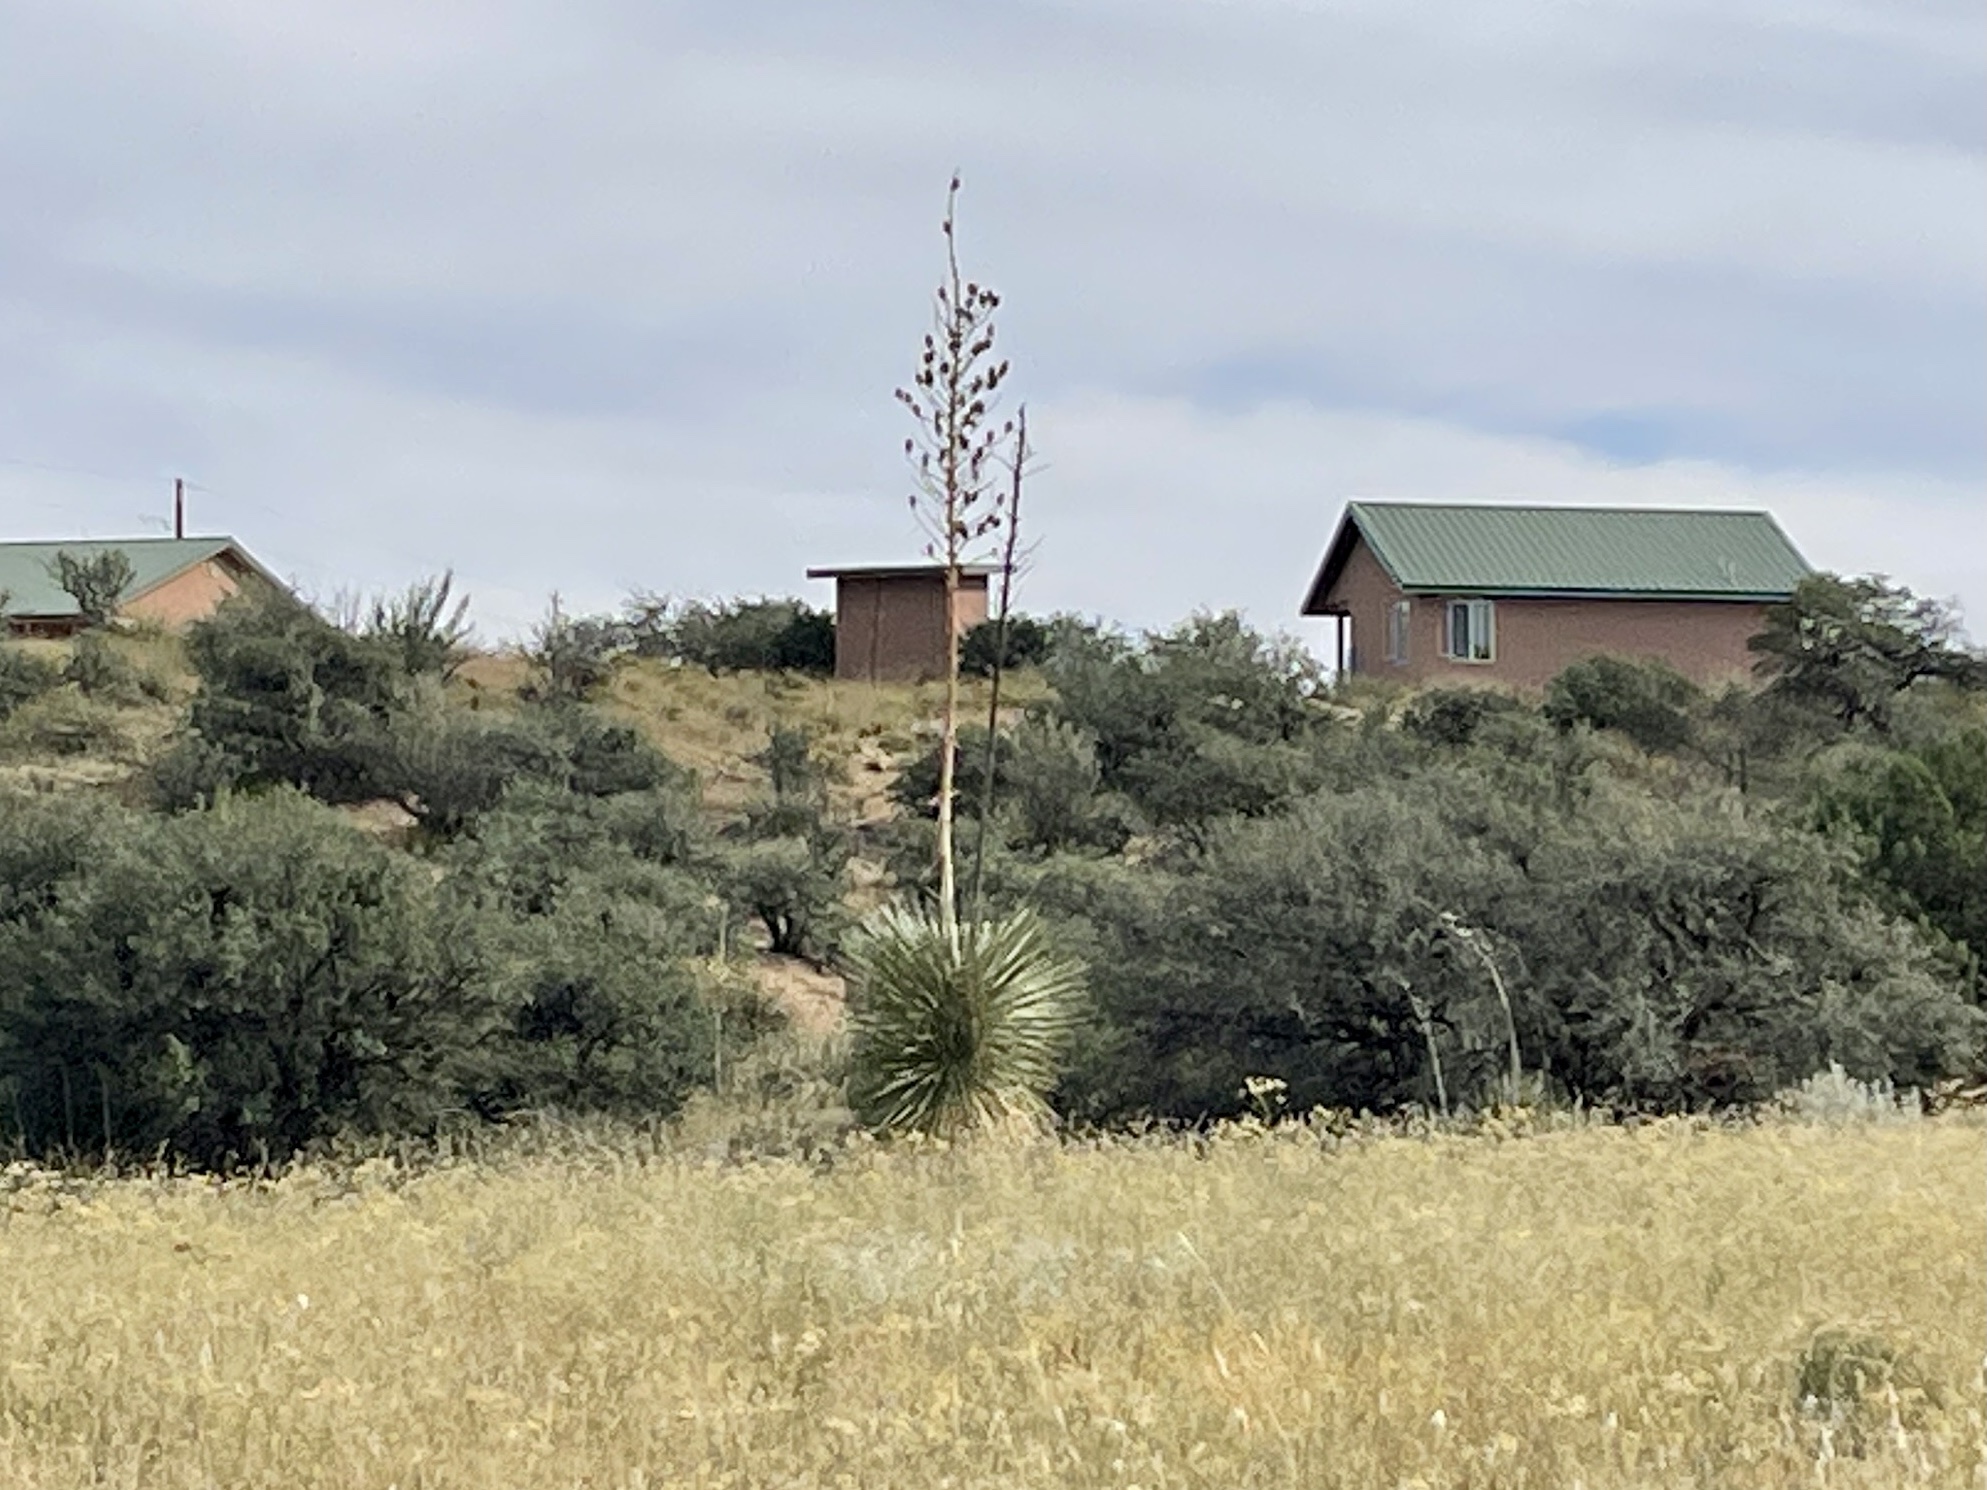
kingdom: Plantae
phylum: Tracheophyta
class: Liliopsida
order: Asparagales
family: Asparagaceae
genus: Yucca
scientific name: Yucca elata
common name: Palmella
